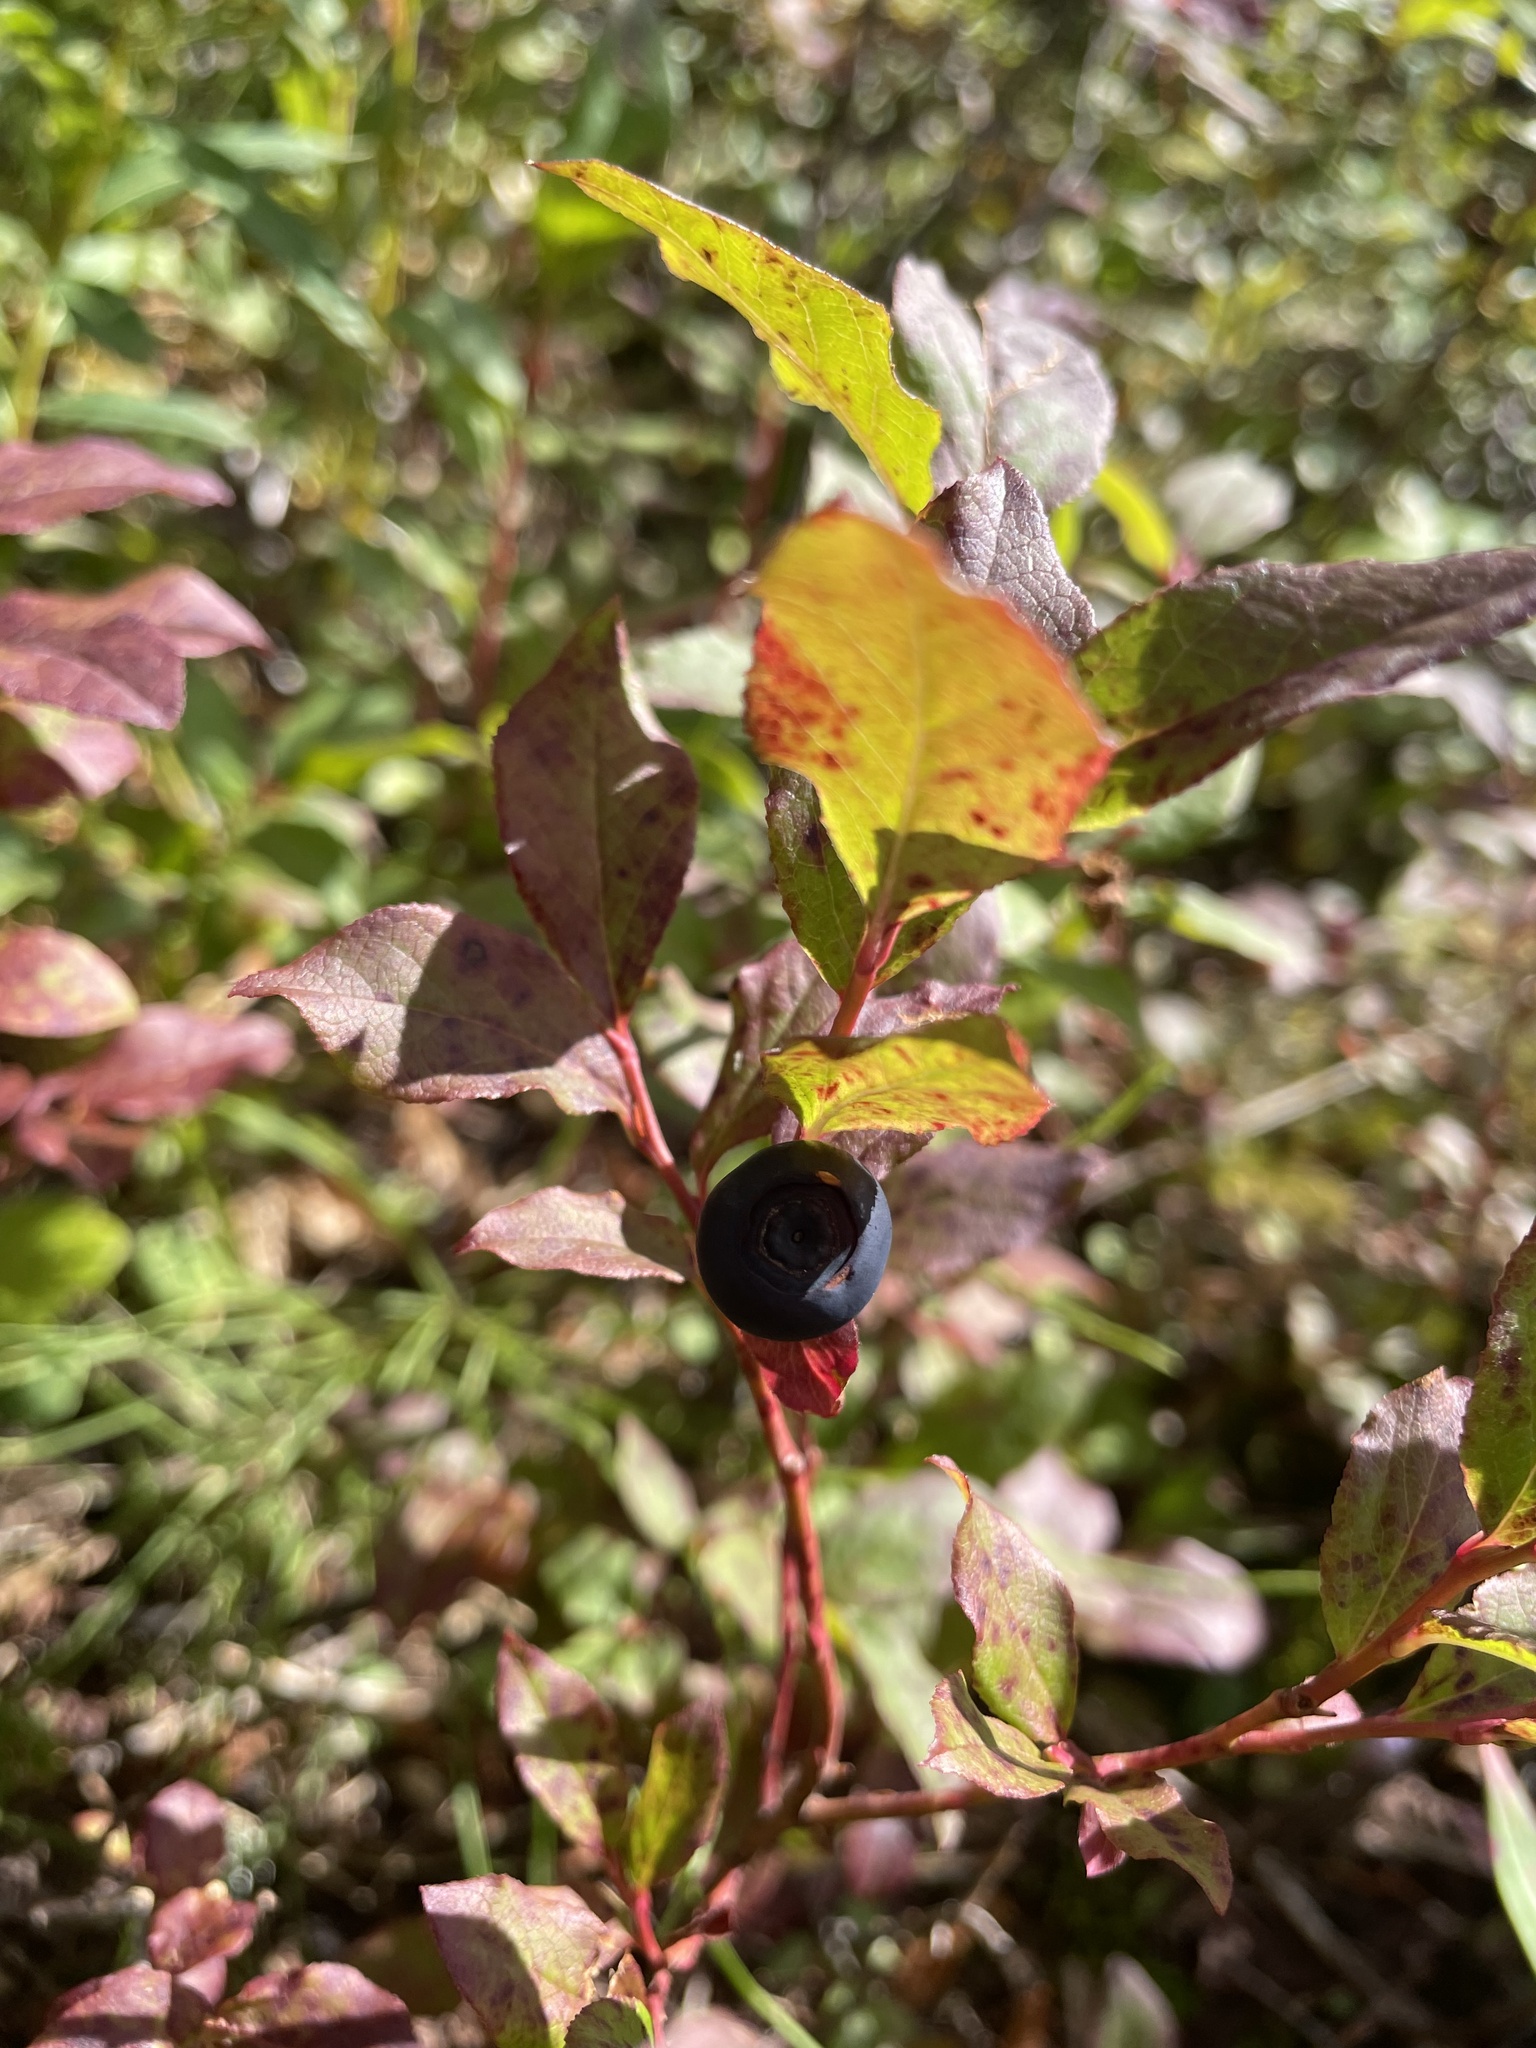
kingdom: Plantae
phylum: Tracheophyta
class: Magnoliopsida
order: Ericales
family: Ericaceae
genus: Vaccinium
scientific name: Vaccinium membranaceum
